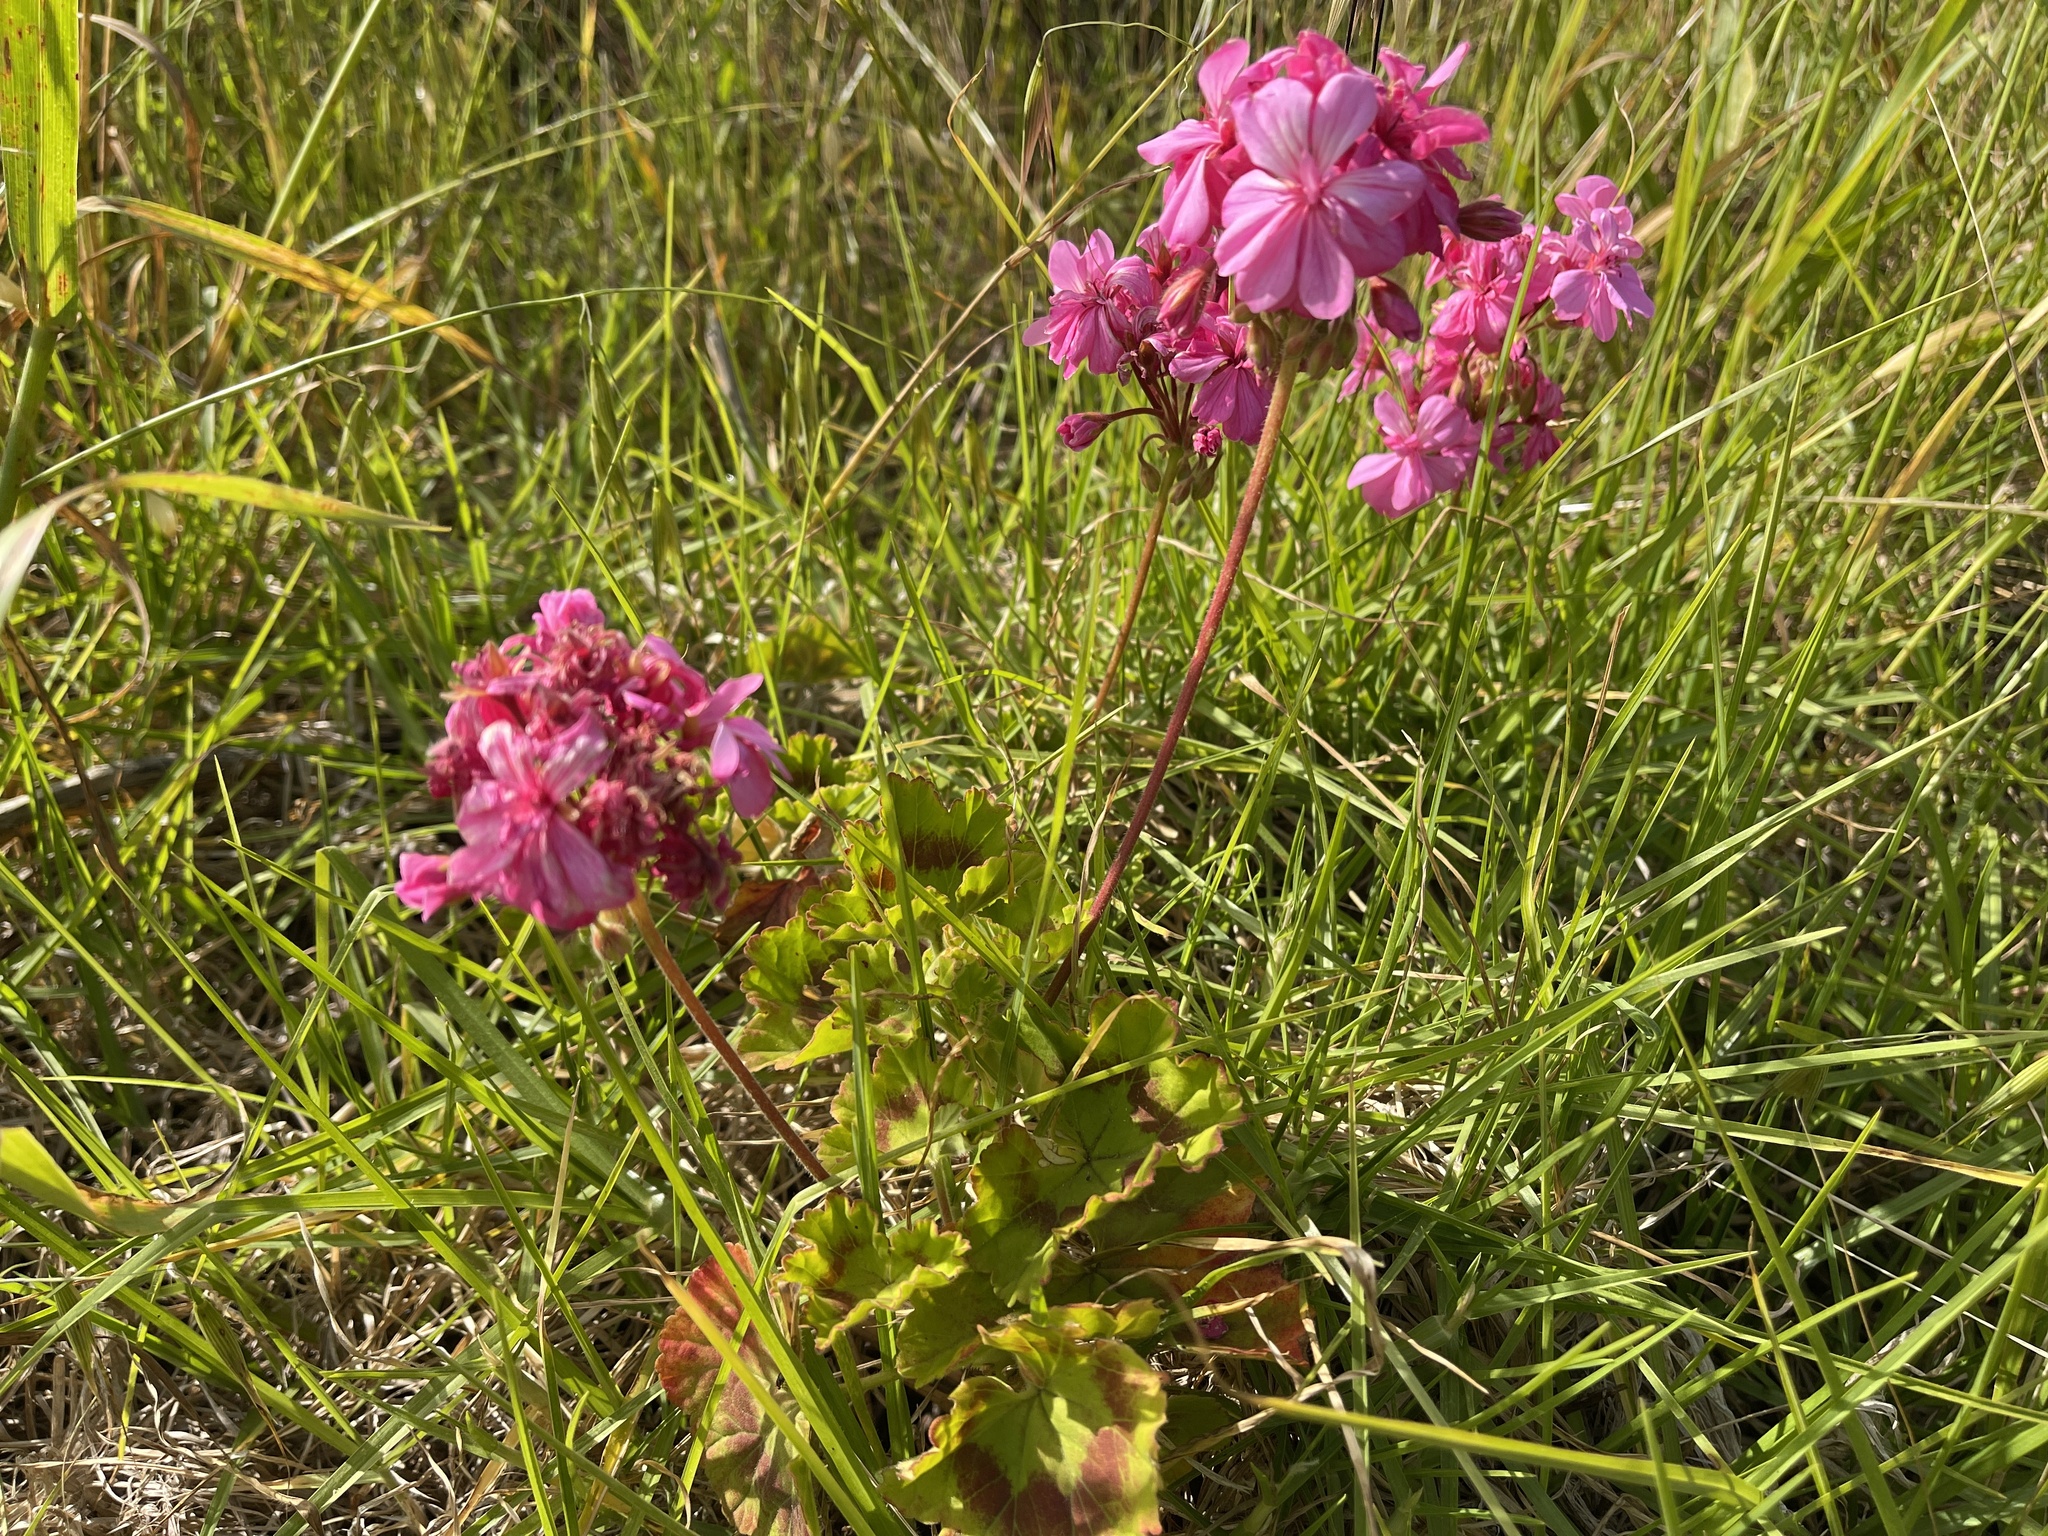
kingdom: Plantae
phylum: Tracheophyta
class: Magnoliopsida
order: Geraniales
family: Geraniaceae
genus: Pelargonium
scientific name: Pelargonium hybridum
